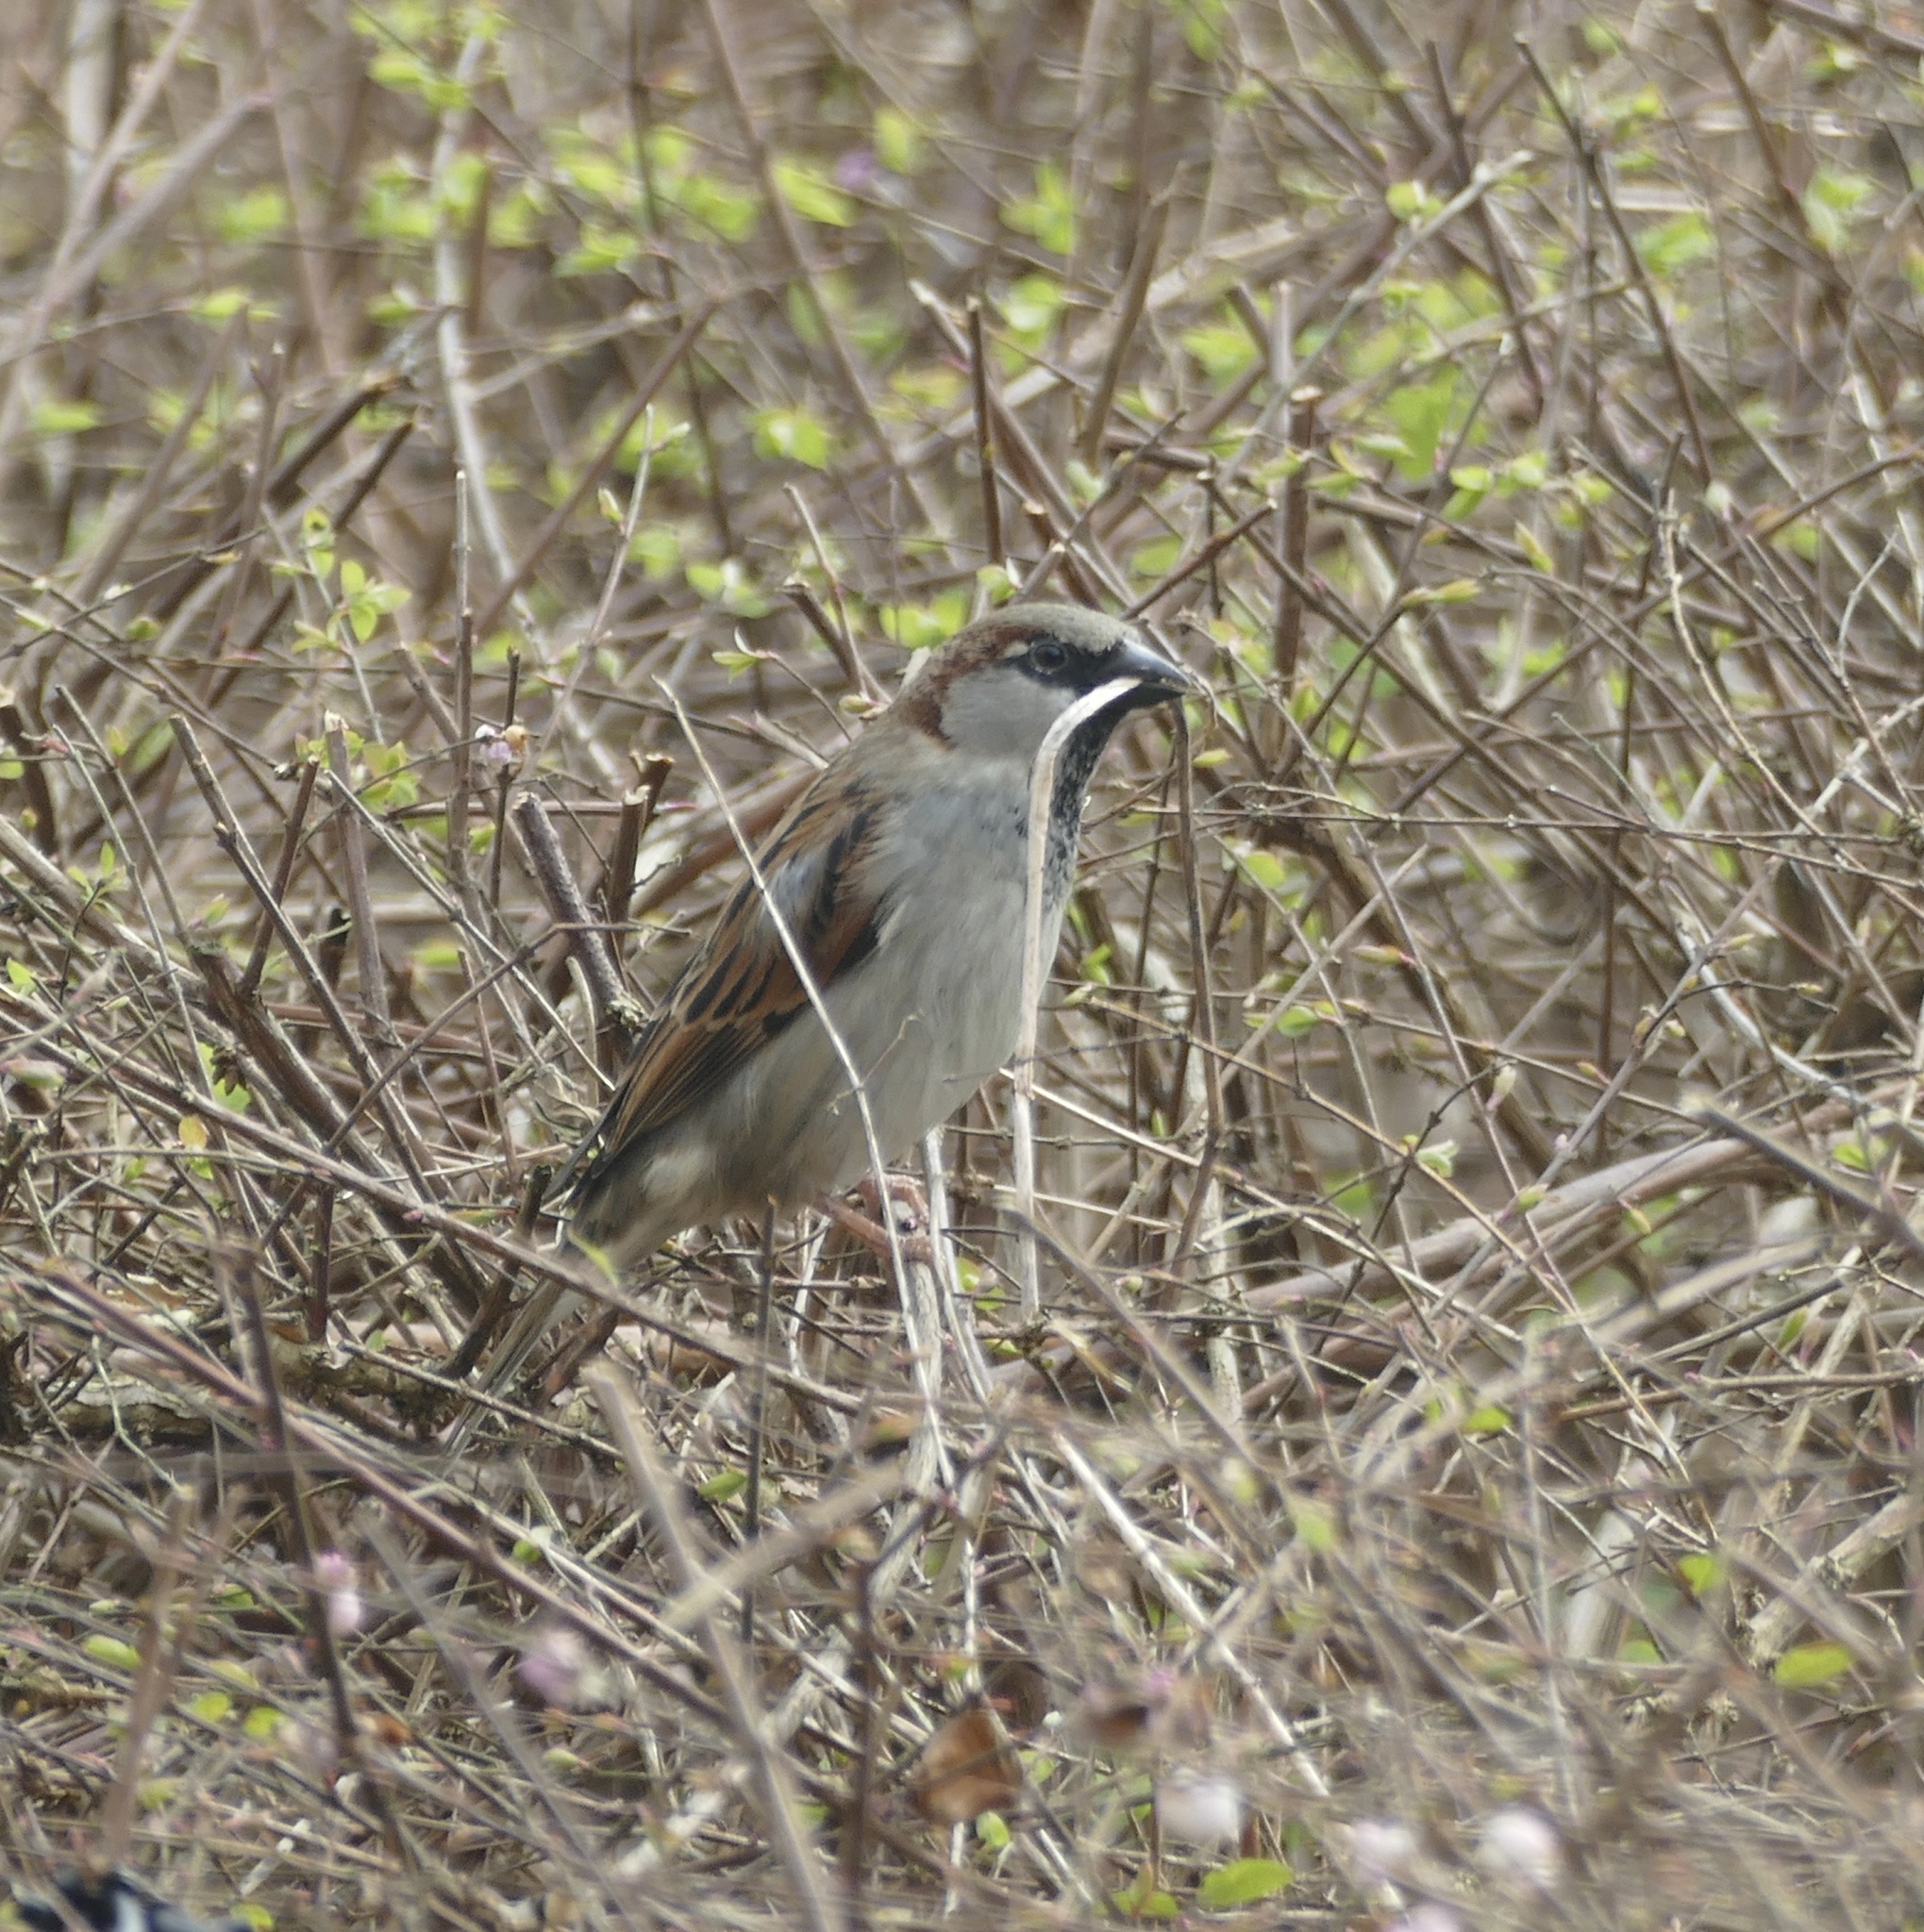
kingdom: Animalia
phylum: Chordata
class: Aves
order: Passeriformes
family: Passeridae
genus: Passer
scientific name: Passer domesticus
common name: House sparrow
